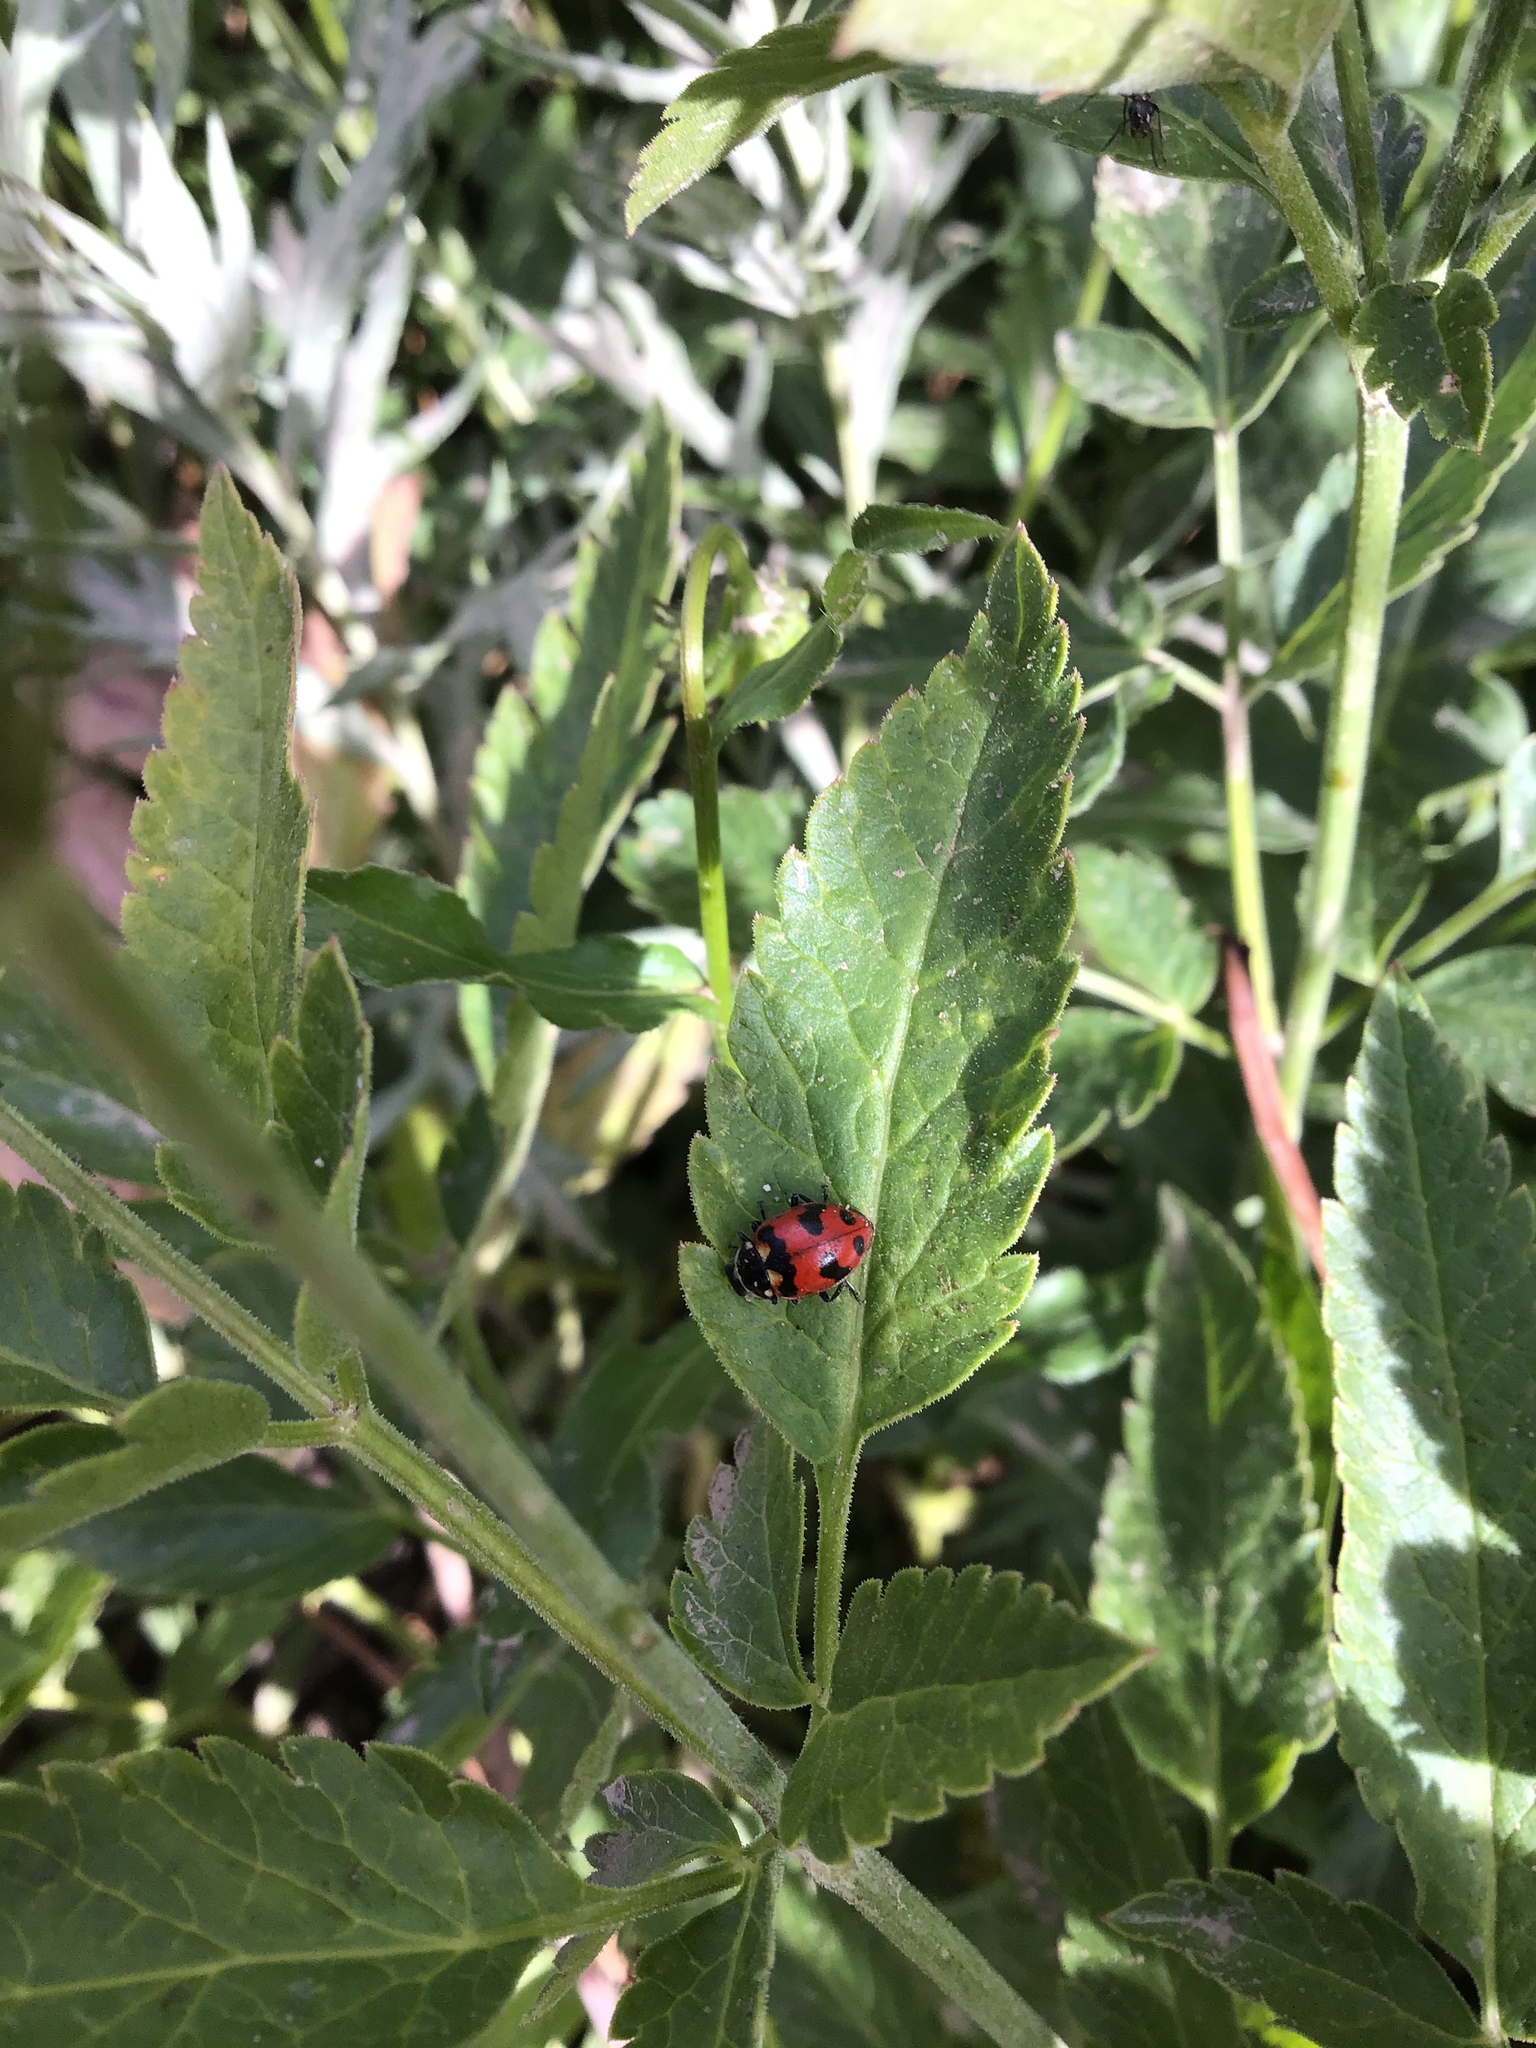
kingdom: Animalia
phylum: Arthropoda
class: Insecta
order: Coleoptera
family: Coccinellidae
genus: Hippodamia
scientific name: Hippodamia caseyi
